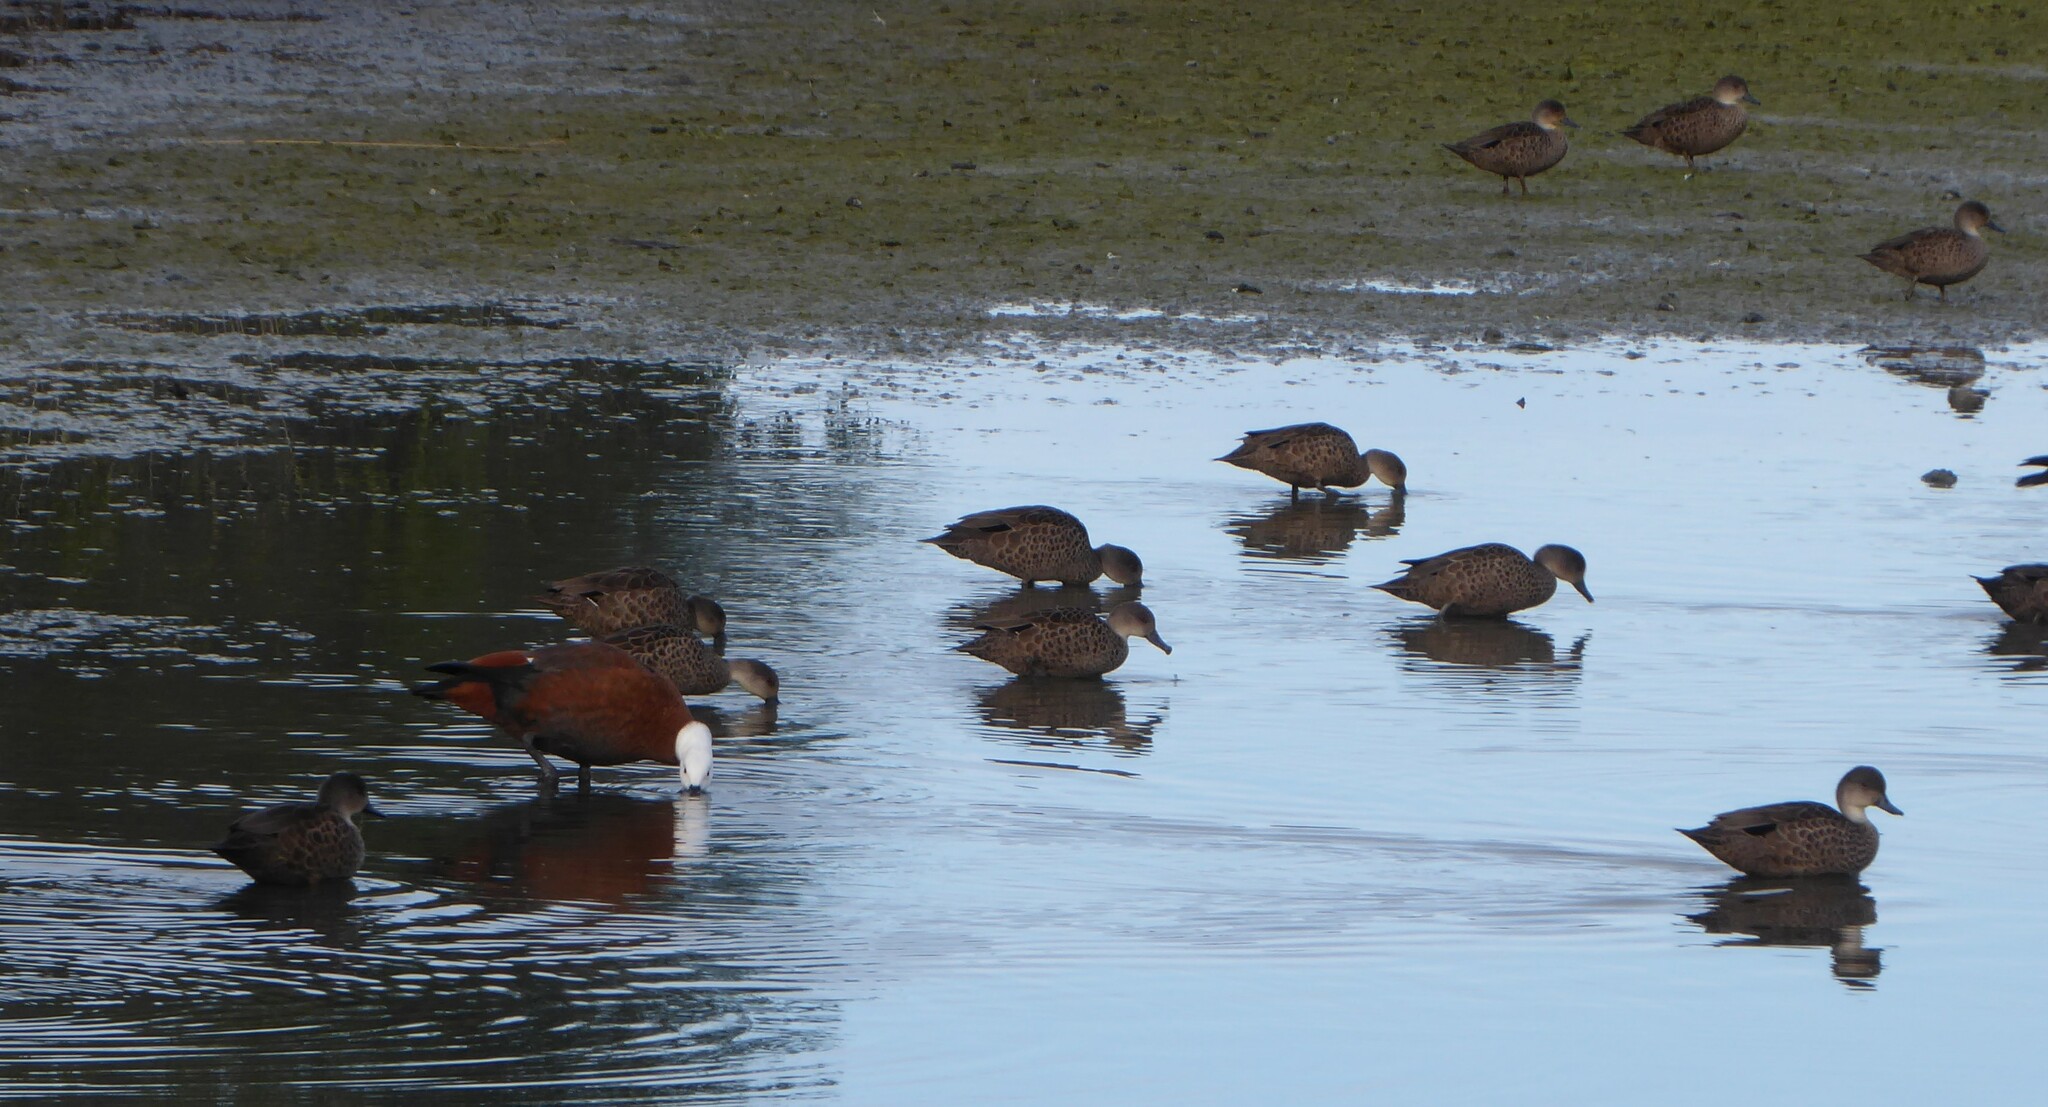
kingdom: Animalia
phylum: Chordata
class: Aves
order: Anseriformes
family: Anatidae
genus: Anas
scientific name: Anas gracilis
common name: Grey teal
